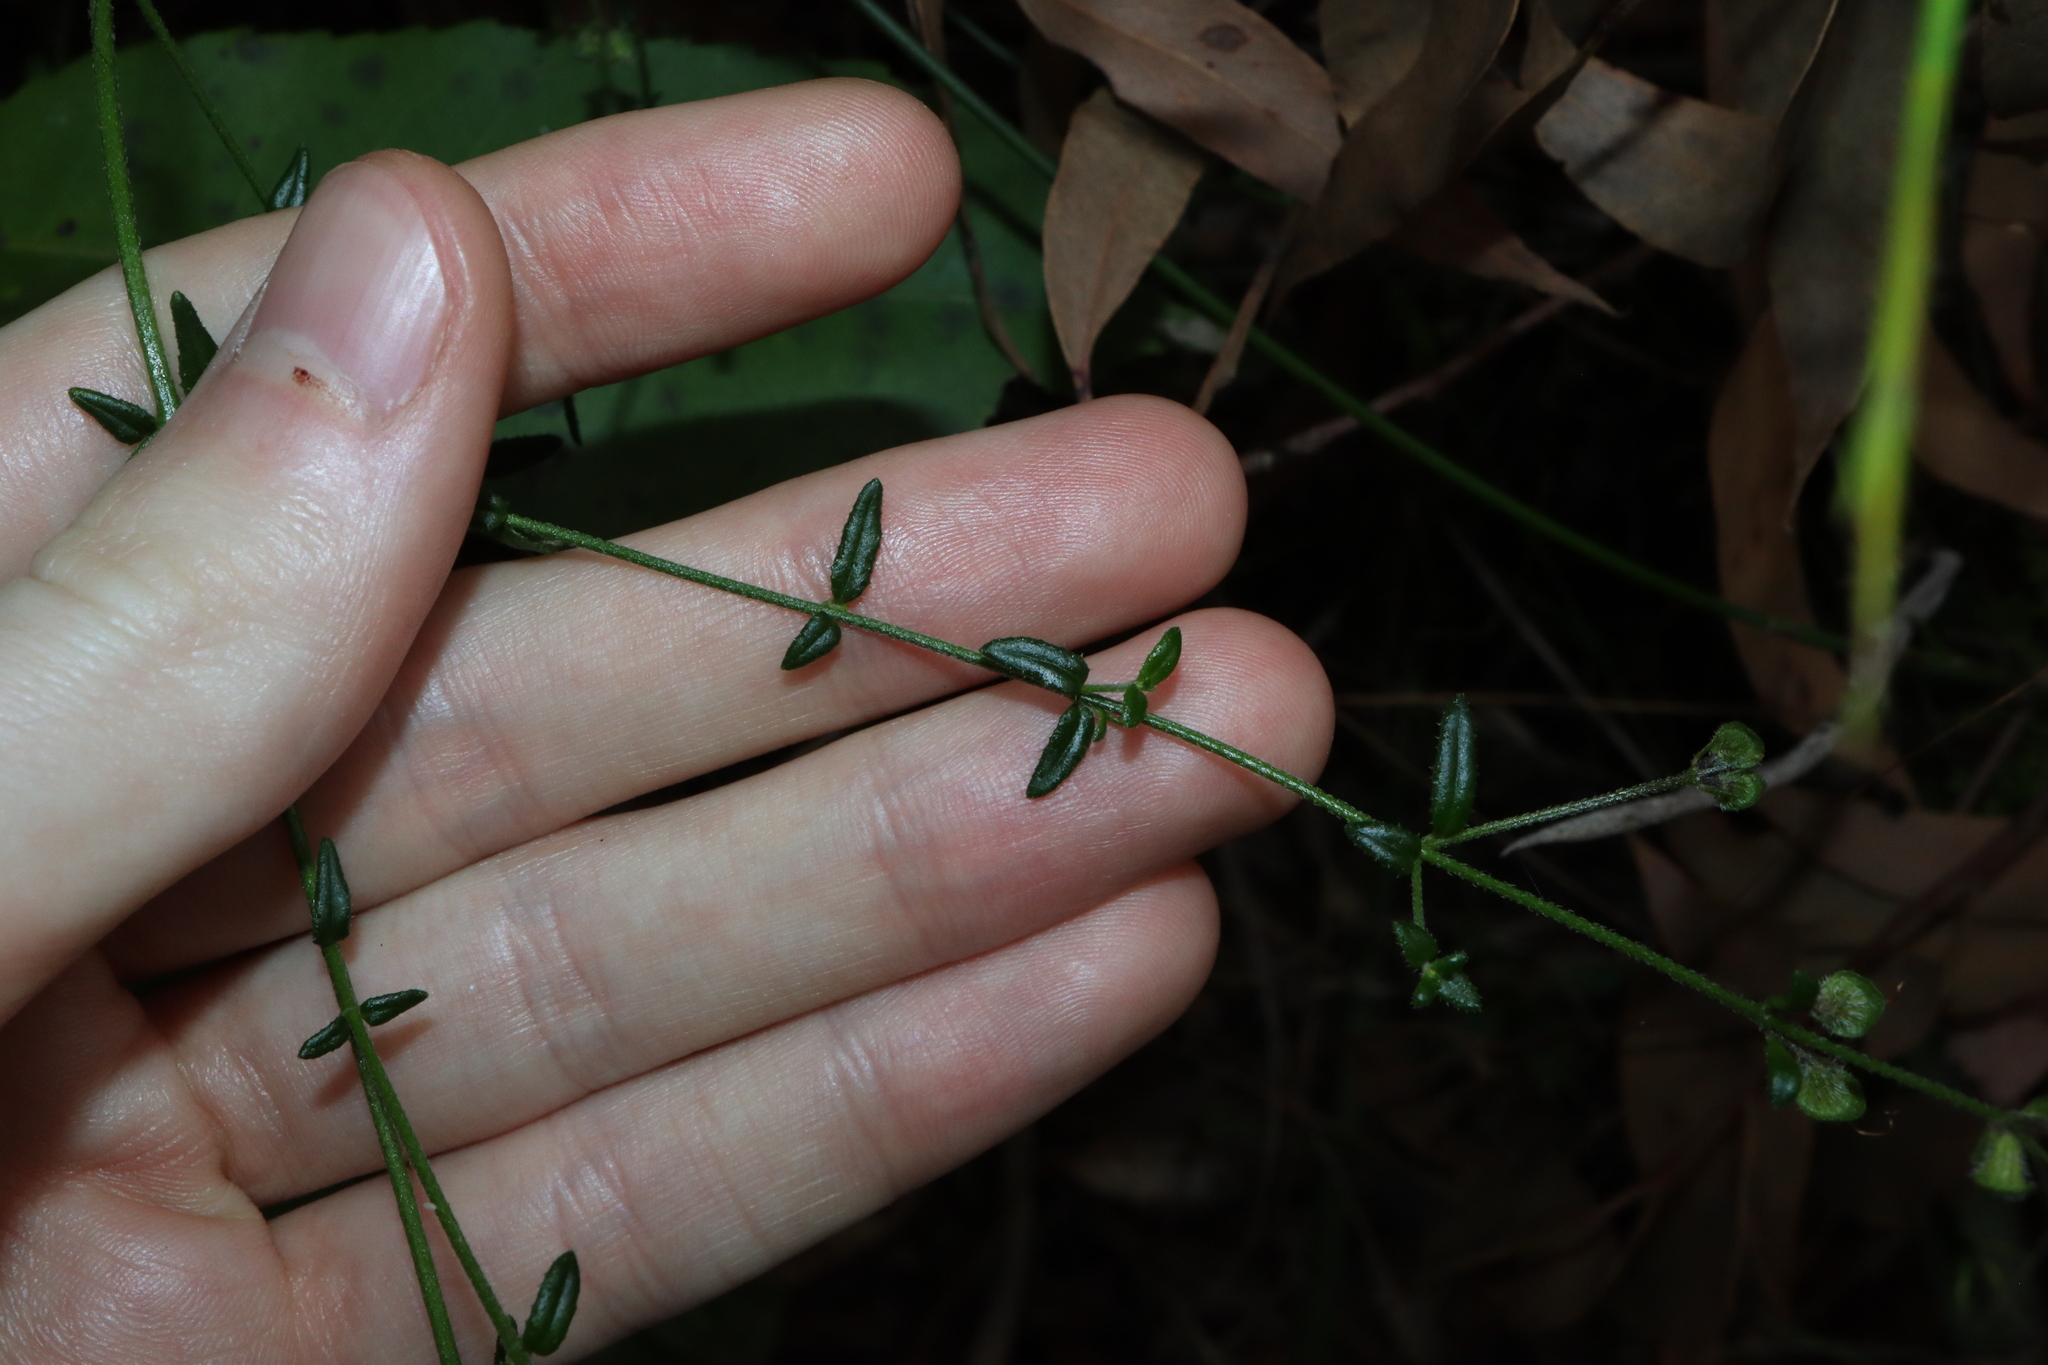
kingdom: Plantae
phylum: Tracheophyta
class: Magnoliopsida
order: Lamiales
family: Lamiaceae
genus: Prostanthera
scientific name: Prostanthera denticulata
